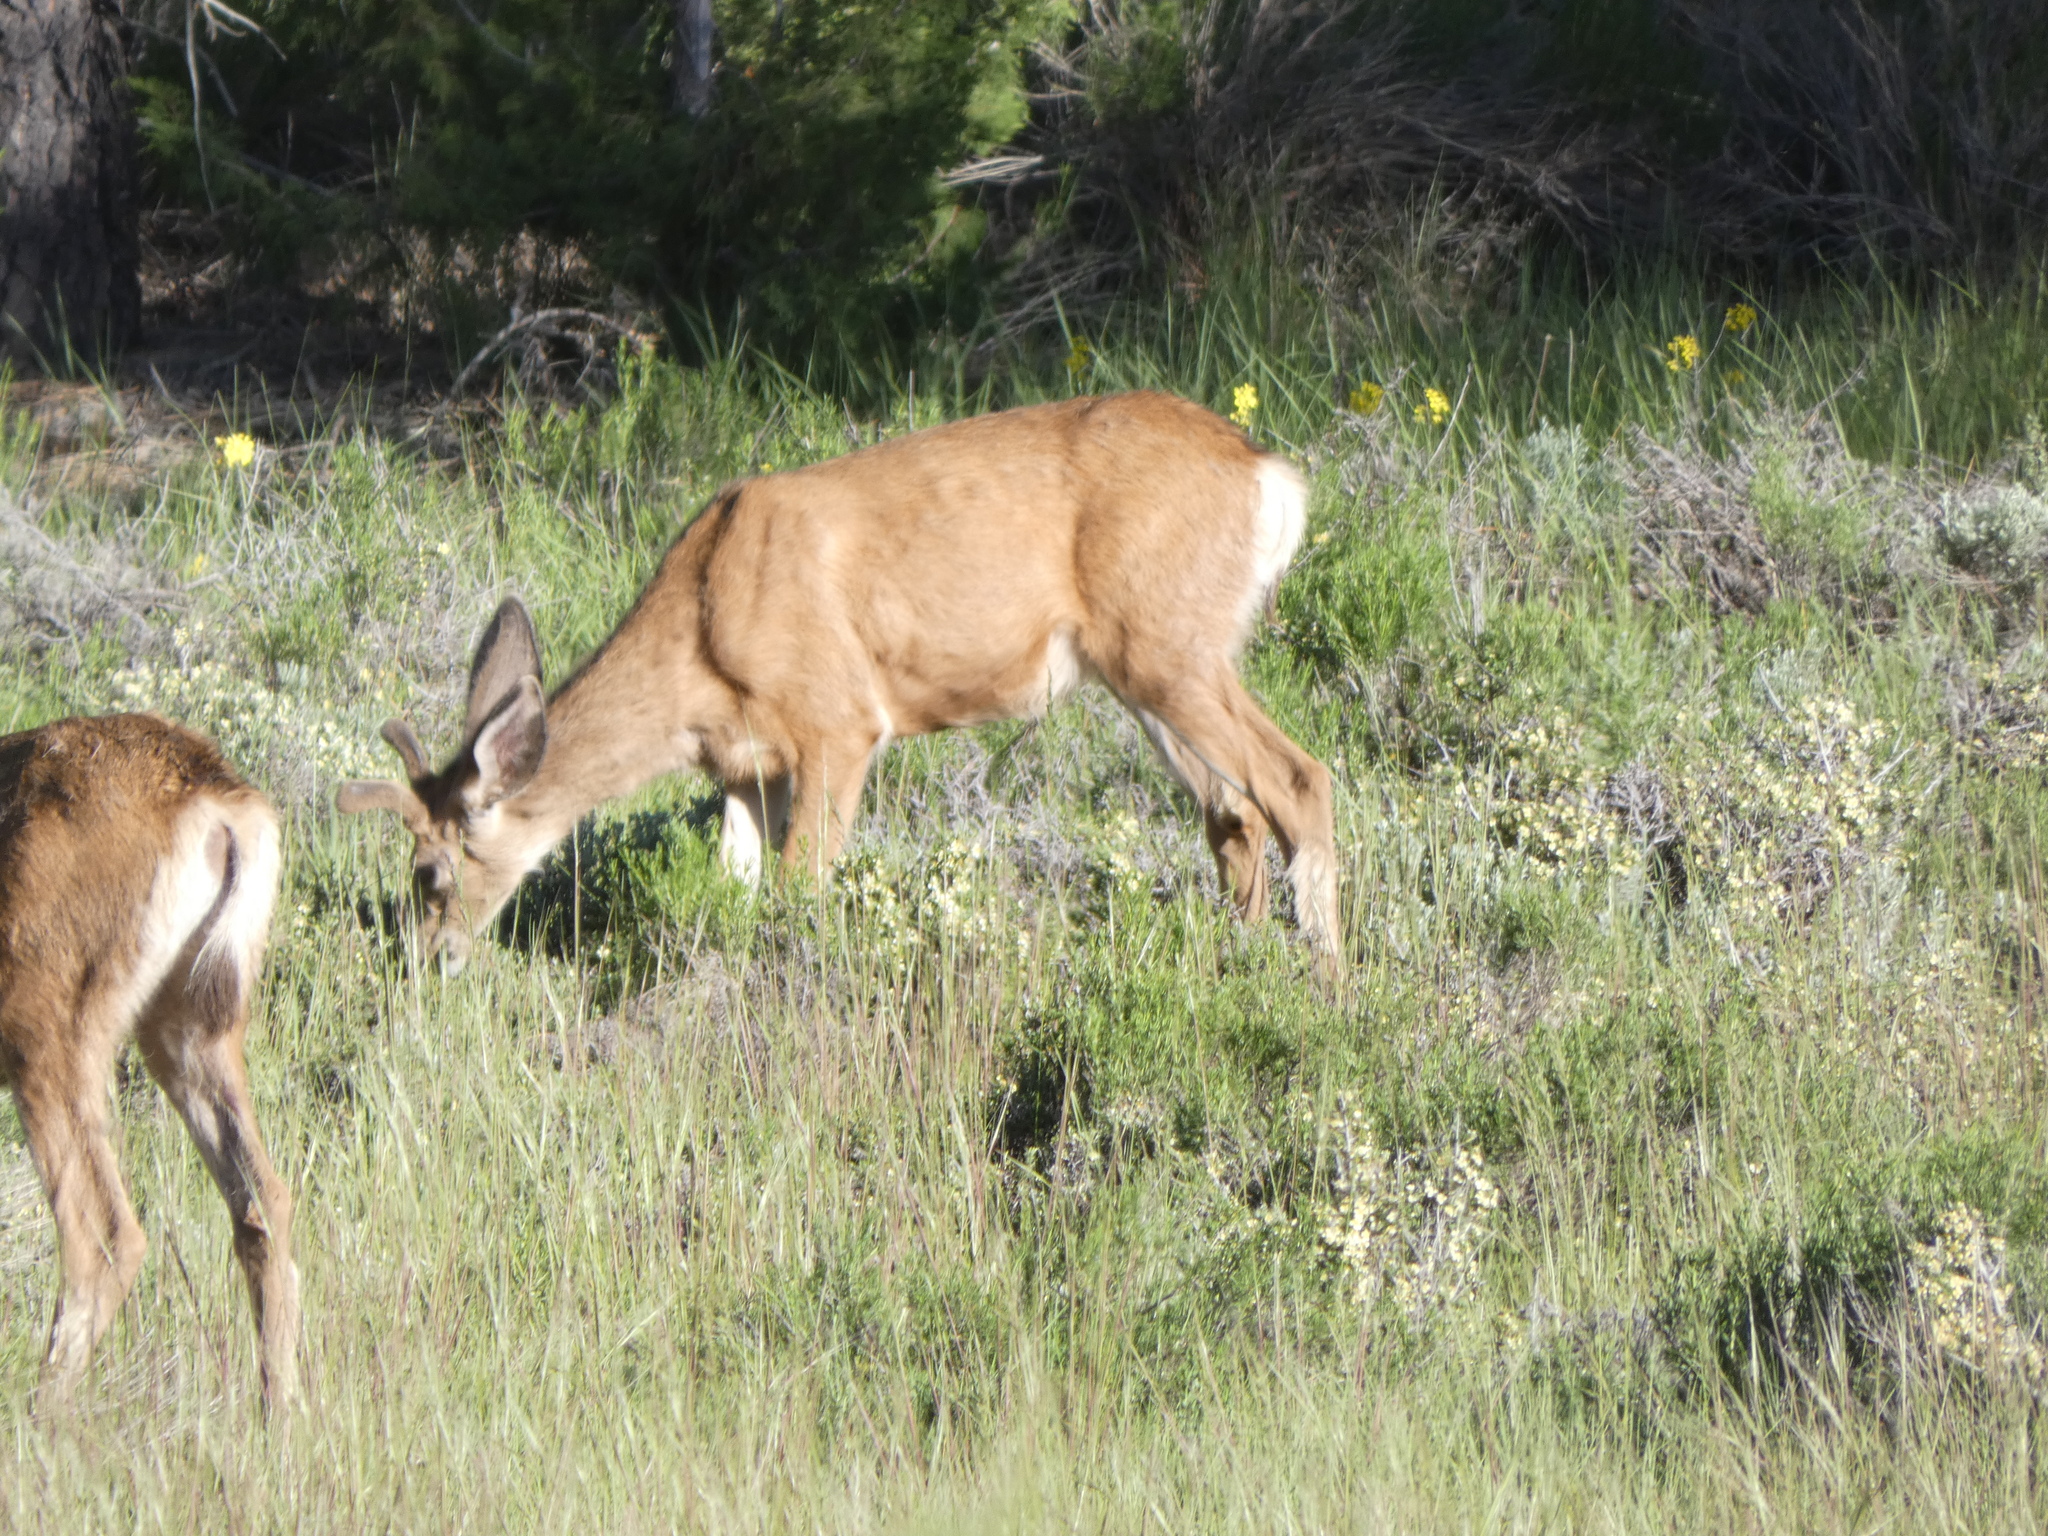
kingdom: Animalia
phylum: Chordata
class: Mammalia
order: Artiodactyla
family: Cervidae
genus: Odocoileus
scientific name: Odocoileus hemionus
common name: Mule deer
